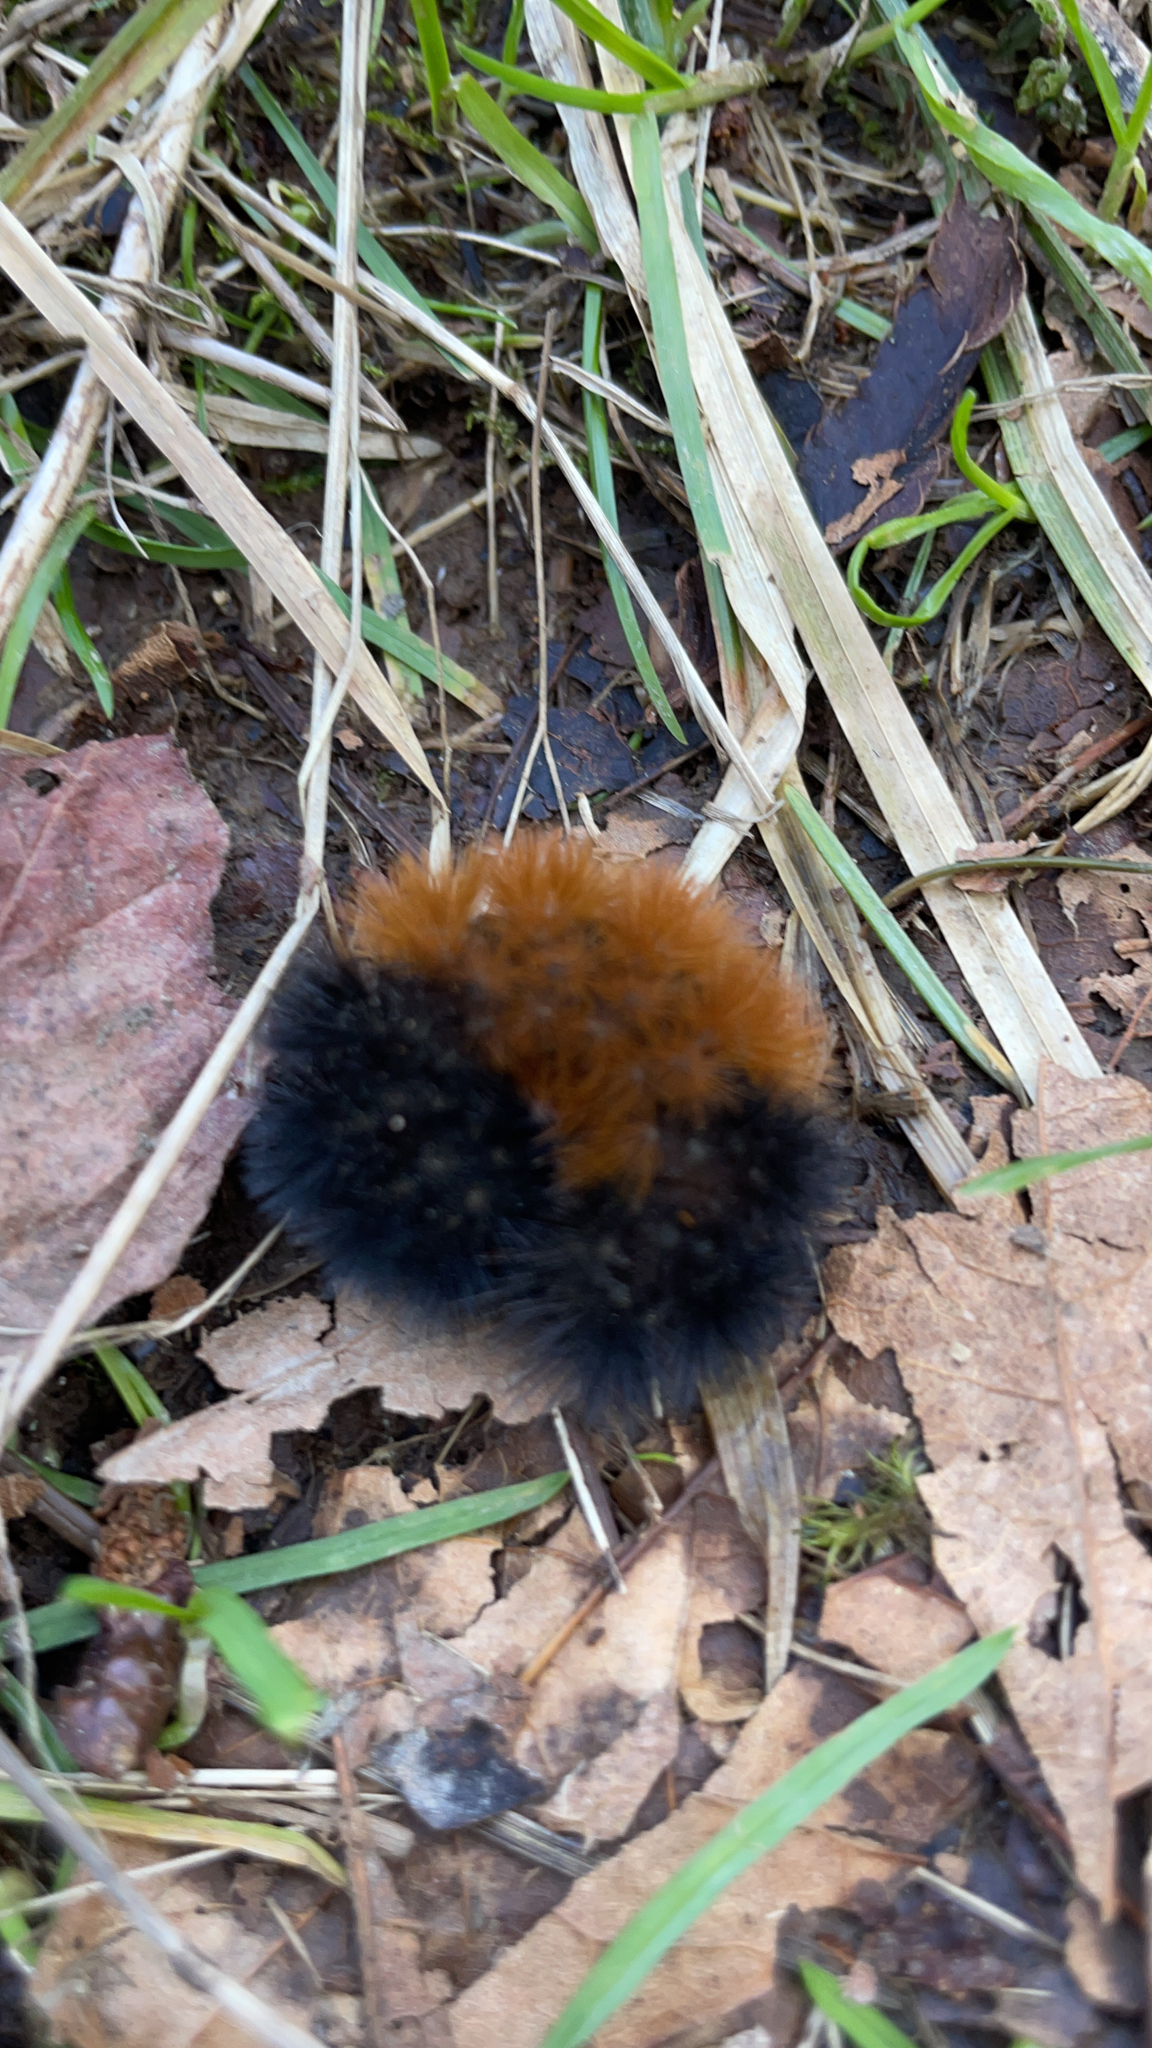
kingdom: Animalia
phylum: Arthropoda
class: Insecta
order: Lepidoptera
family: Erebidae
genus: Pyrrharctia
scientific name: Pyrrharctia isabella
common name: Isabella tiger moth
